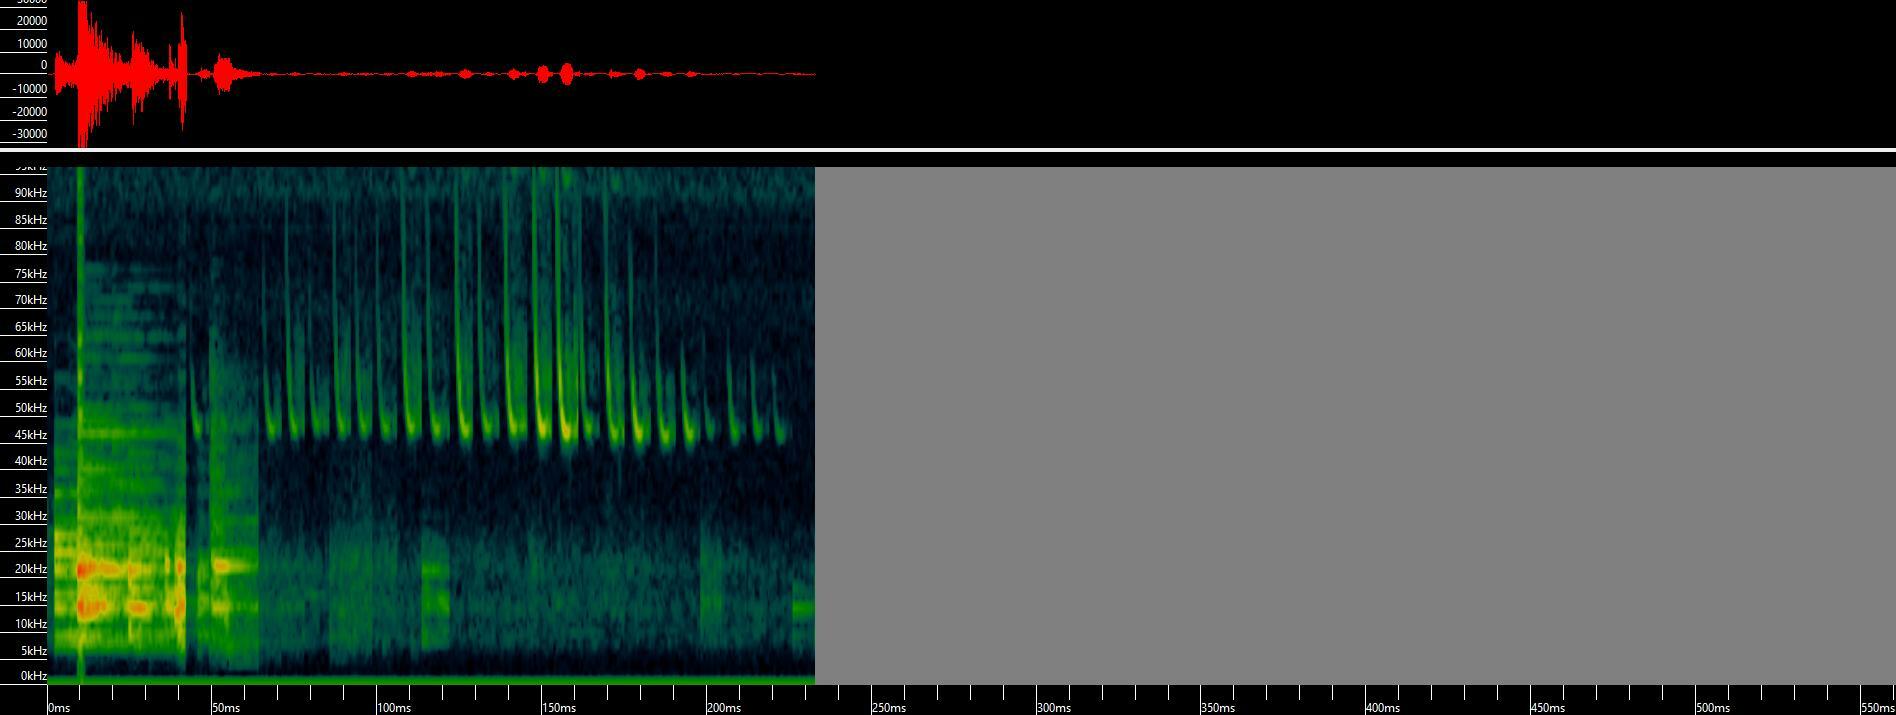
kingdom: Animalia
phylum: Chordata
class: Mammalia
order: Chiroptera
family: Vespertilionidae
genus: Pipistrellus
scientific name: Pipistrellus pipistrellus
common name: Common pipistrelle
